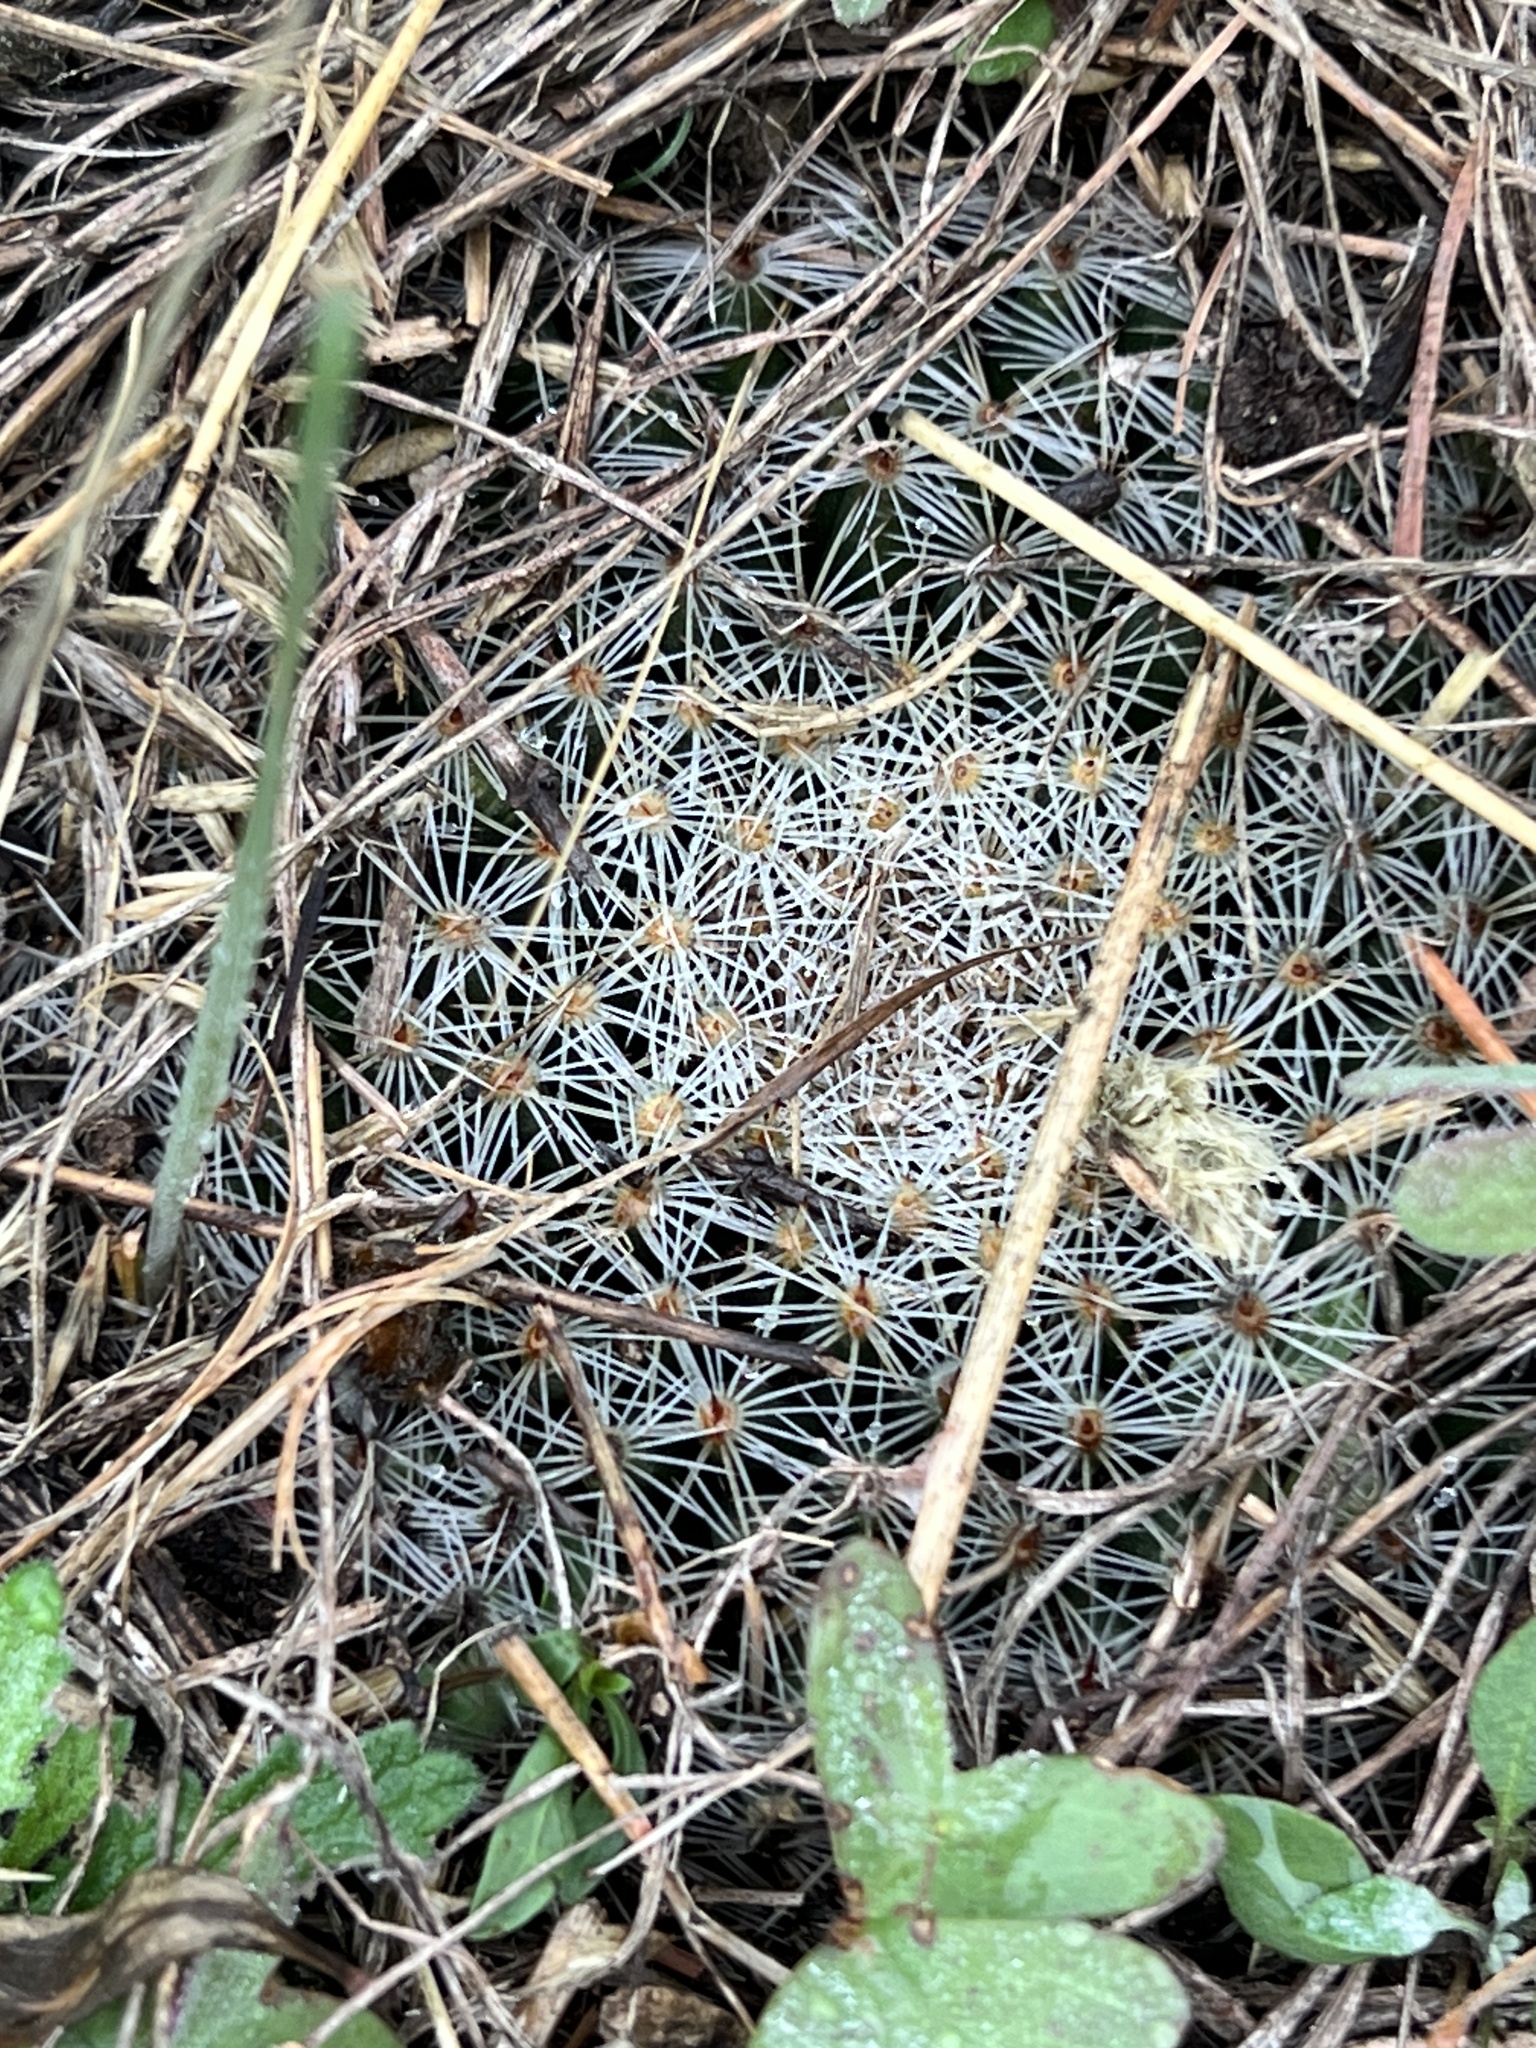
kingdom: Plantae
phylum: Tracheophyta
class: Magnoliopsida
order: Caryophyllales
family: Cactaceae
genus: Mammillaria
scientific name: Mammillaria heyderi
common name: Little nipple cactus
